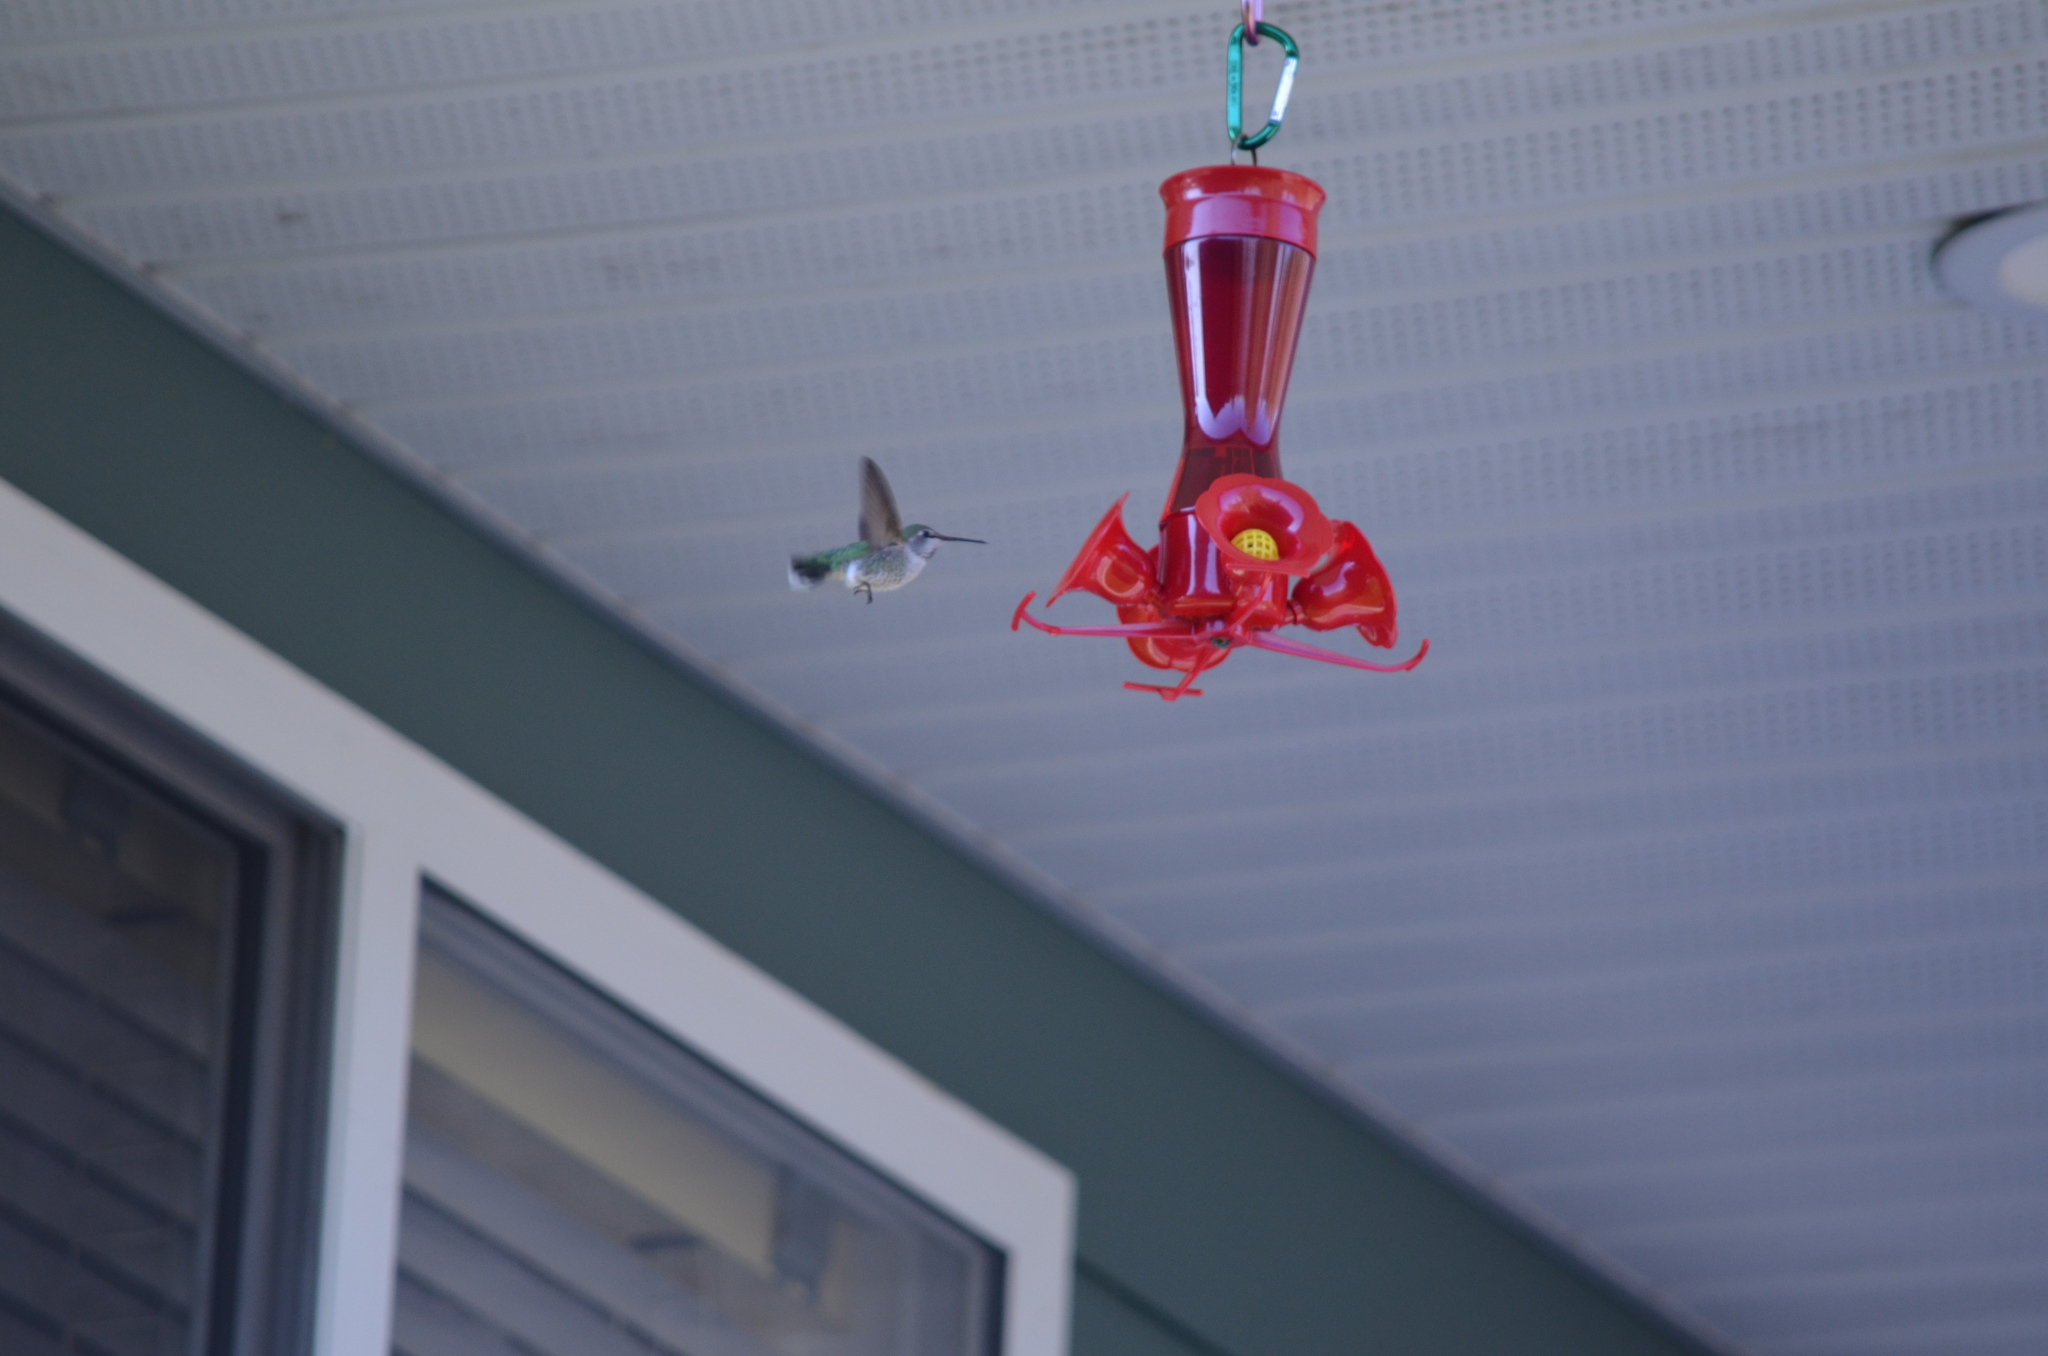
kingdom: Animalia
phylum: Chordata
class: Aves
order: Apodiformes
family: Trochilidae
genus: Calypte
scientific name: Calypte anna
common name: Anna's hummingbird
